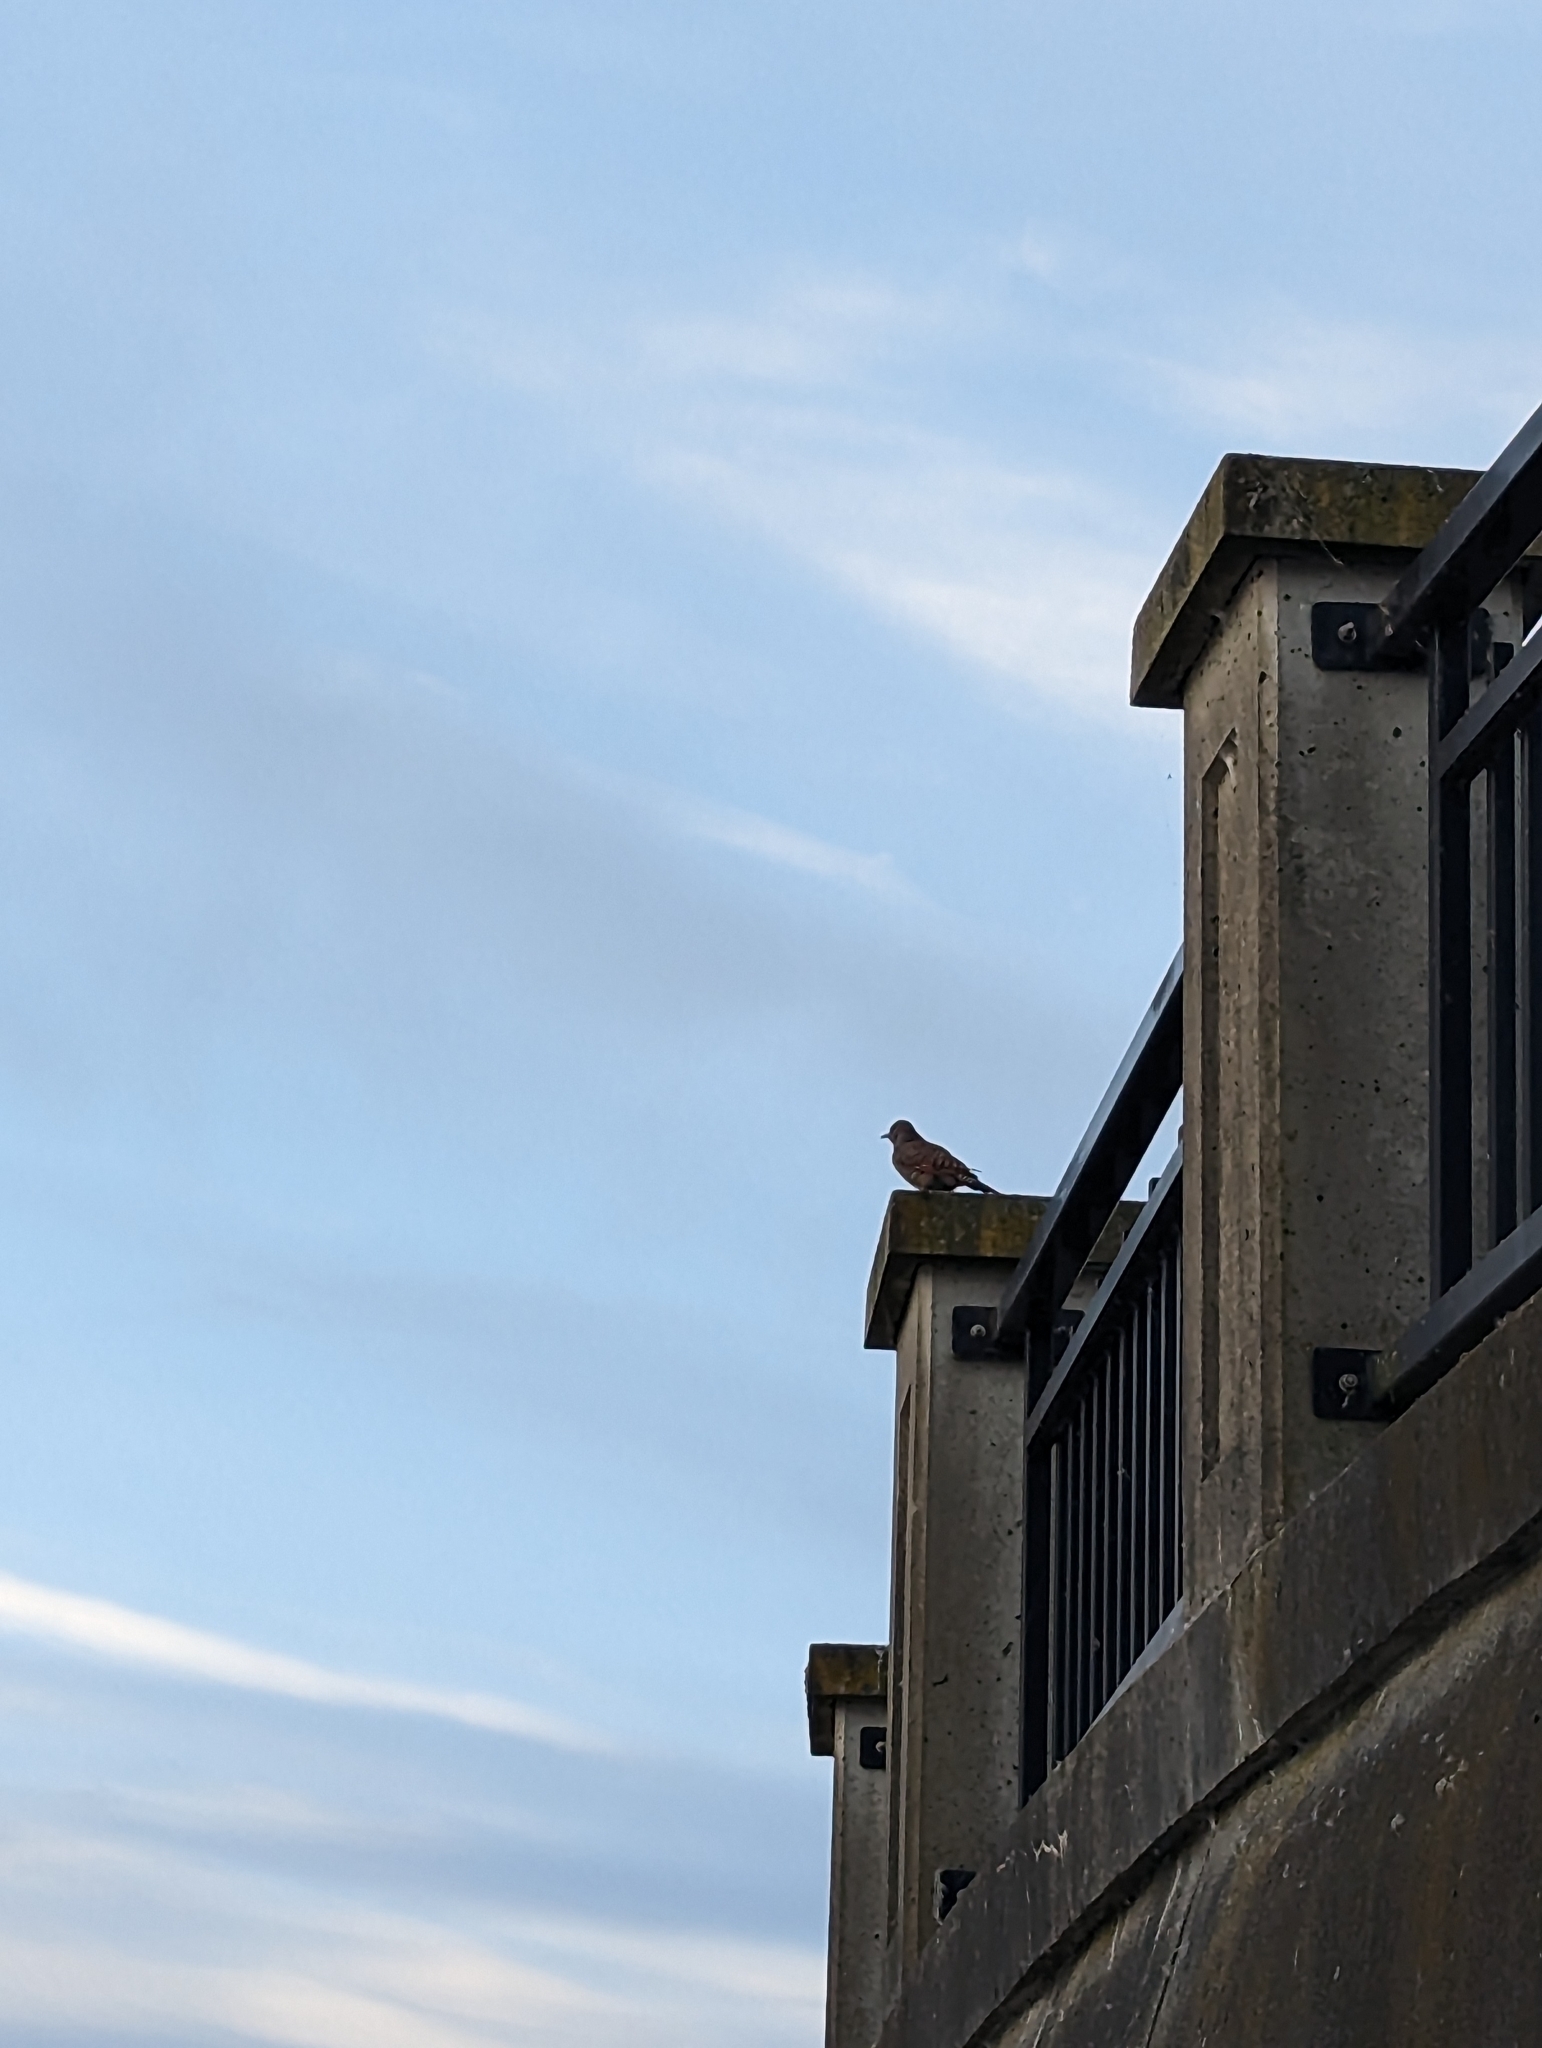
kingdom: Animalia
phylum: Chordata
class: Aves
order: Piciformes
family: Picidae
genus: Colaptes
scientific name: Colaptes auratus
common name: Northern flicker
